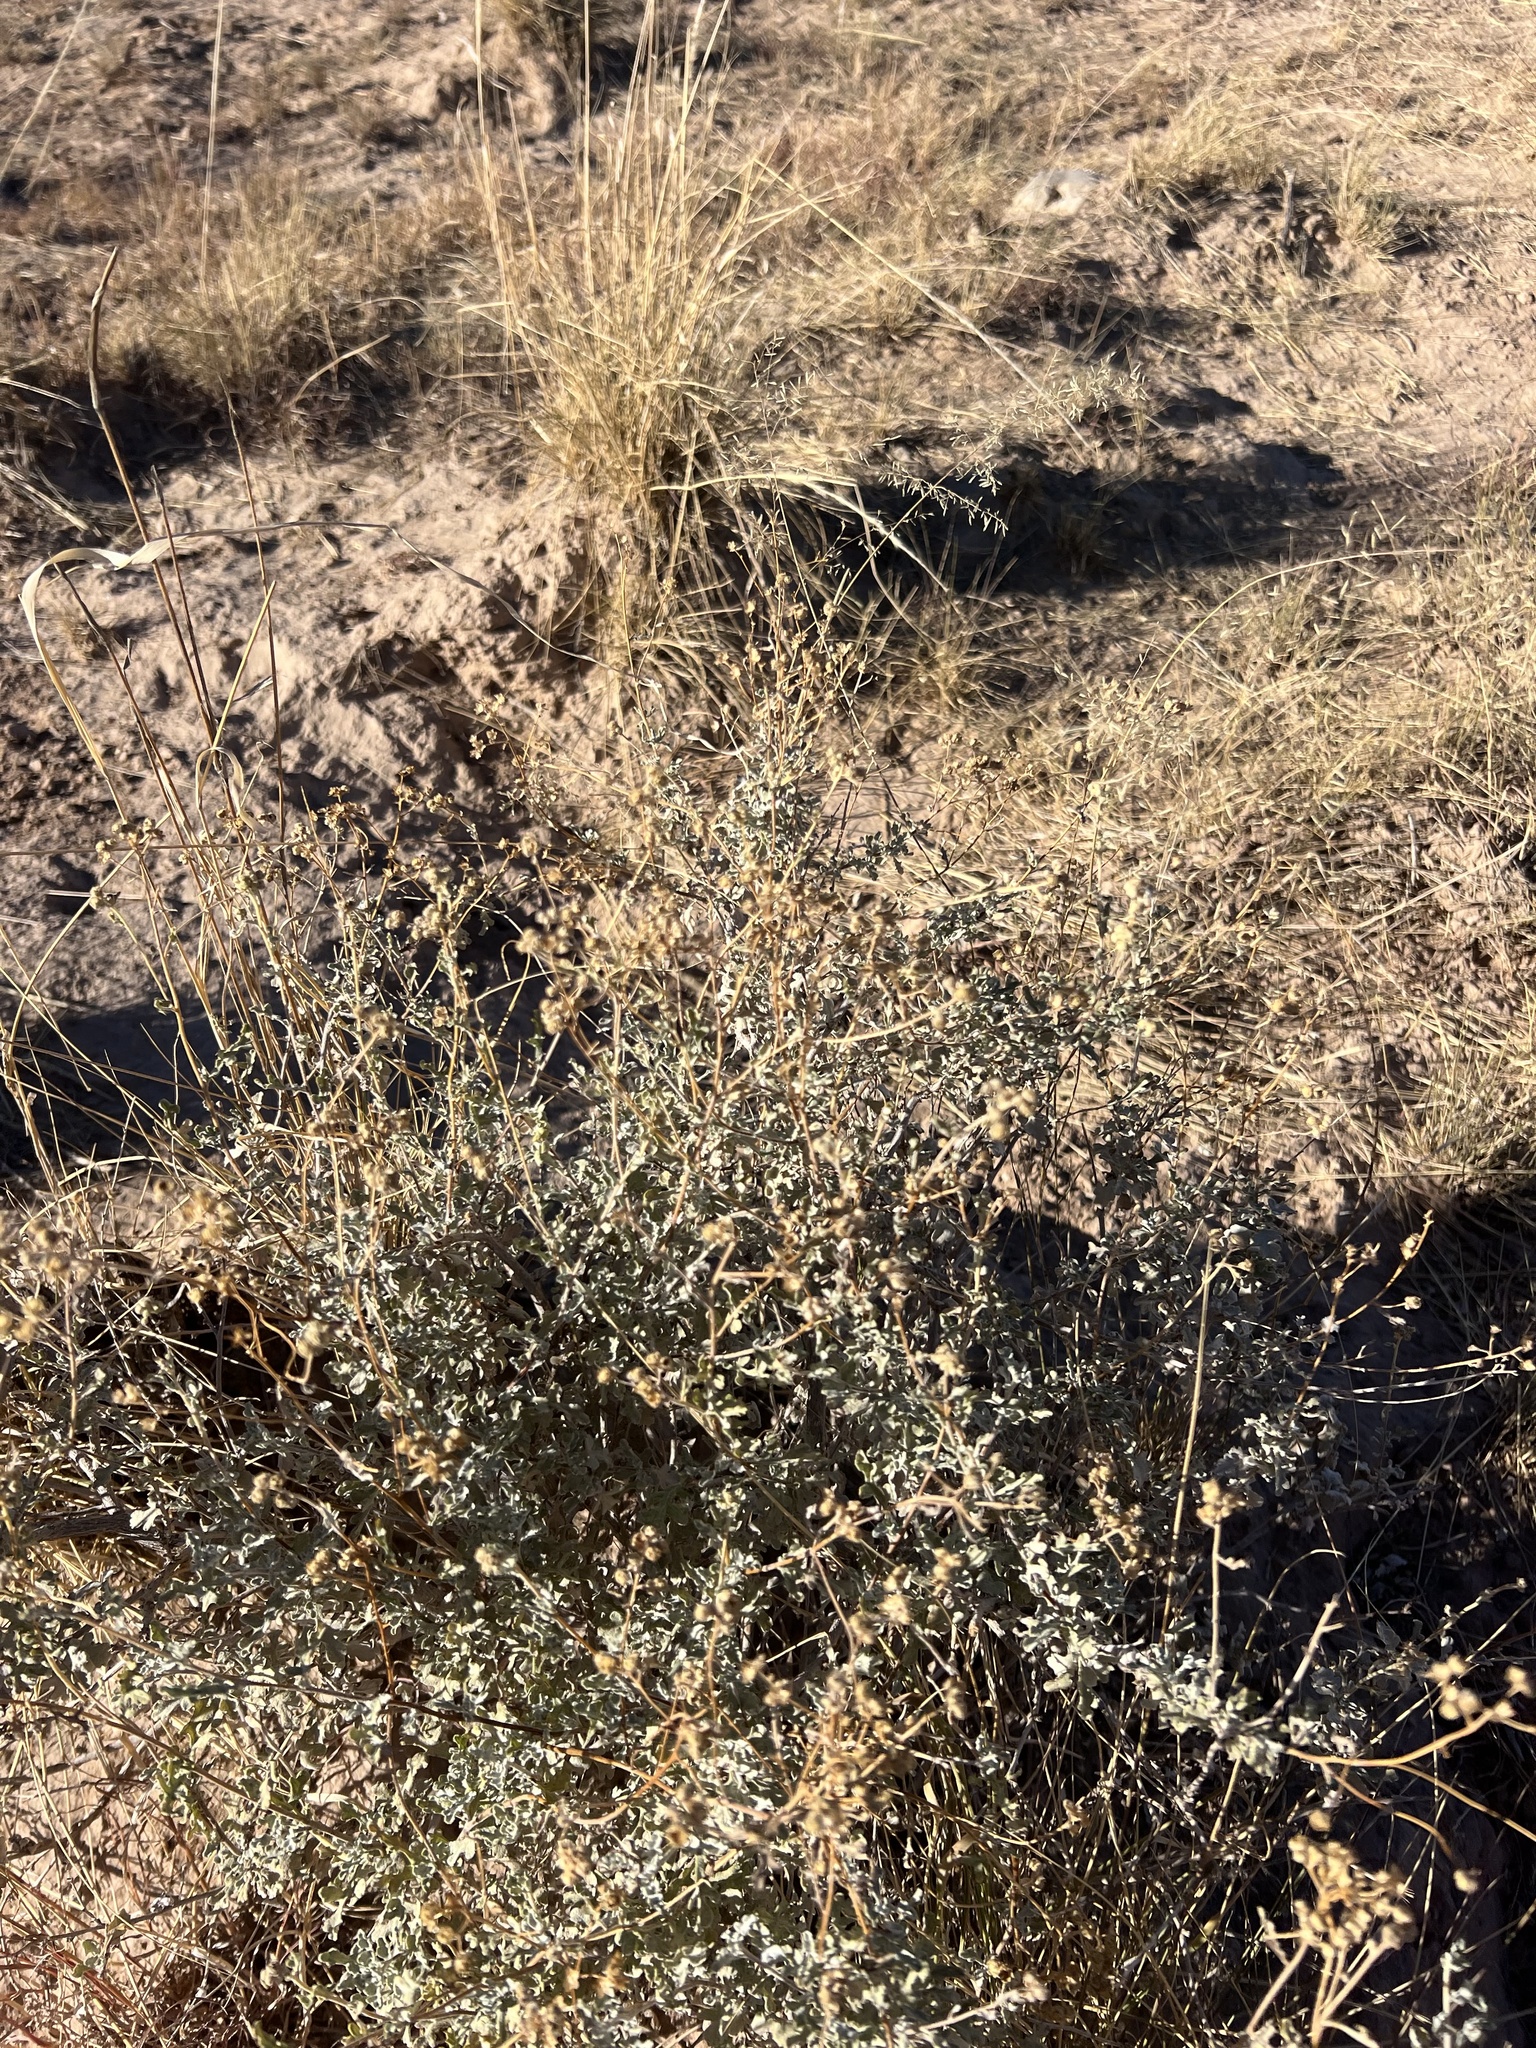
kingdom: Plantae
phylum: Tracheophyta
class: Magnoliopsida
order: Asterales
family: Asteraceae
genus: Parthenium
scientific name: Parthenium incanum
